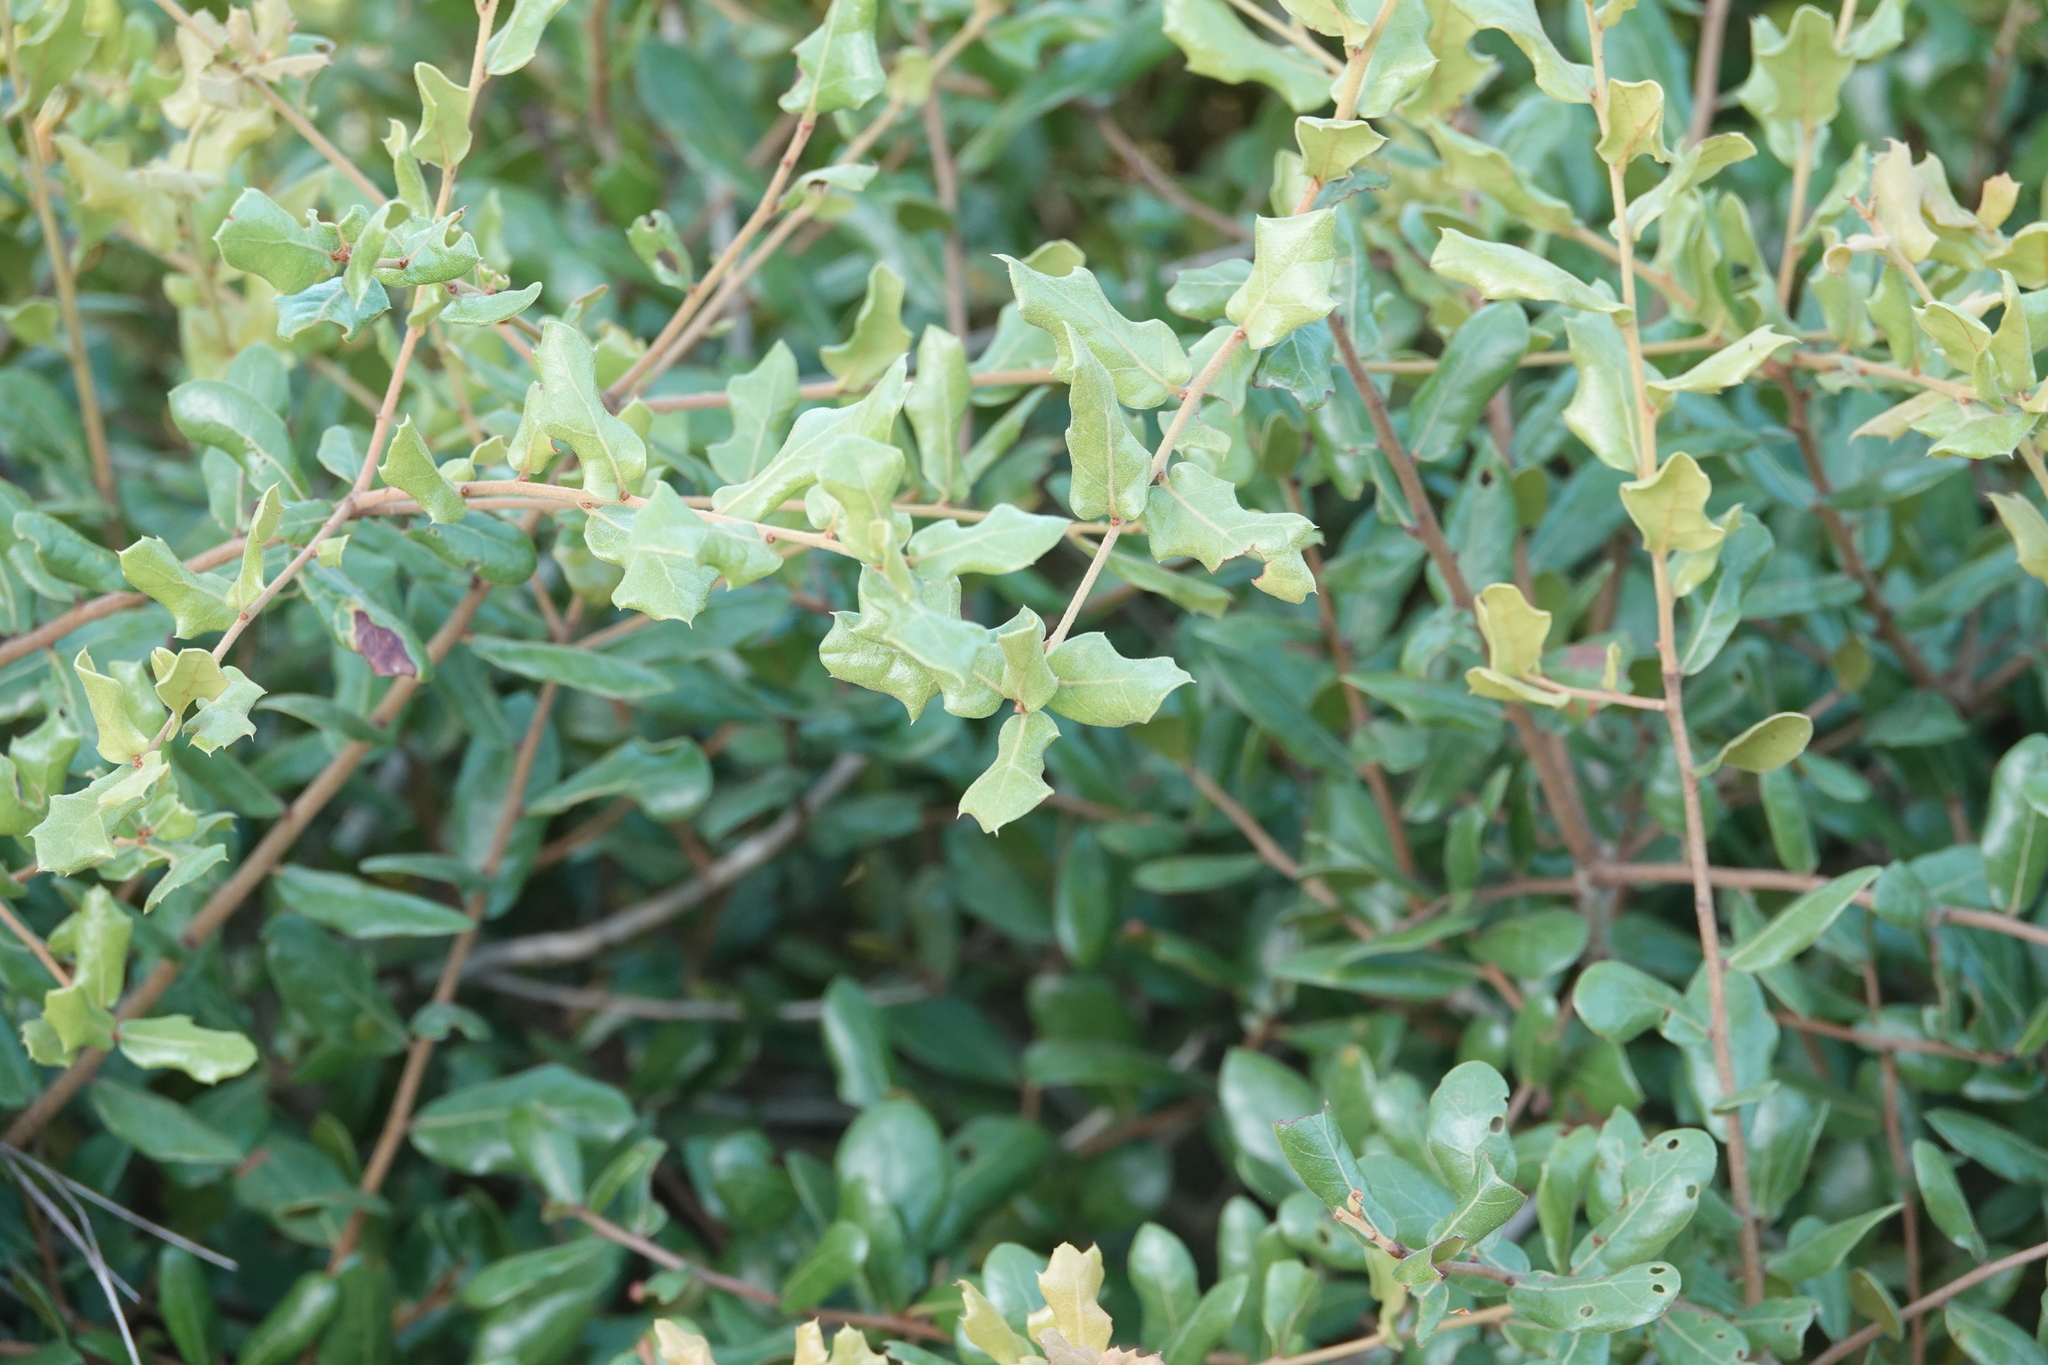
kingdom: Plantae
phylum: Tracheophyta
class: Magnoliopsida
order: Fagales
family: Fagaceae
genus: Quercus
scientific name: Quercus myrtifolia
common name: Myrtle oak
